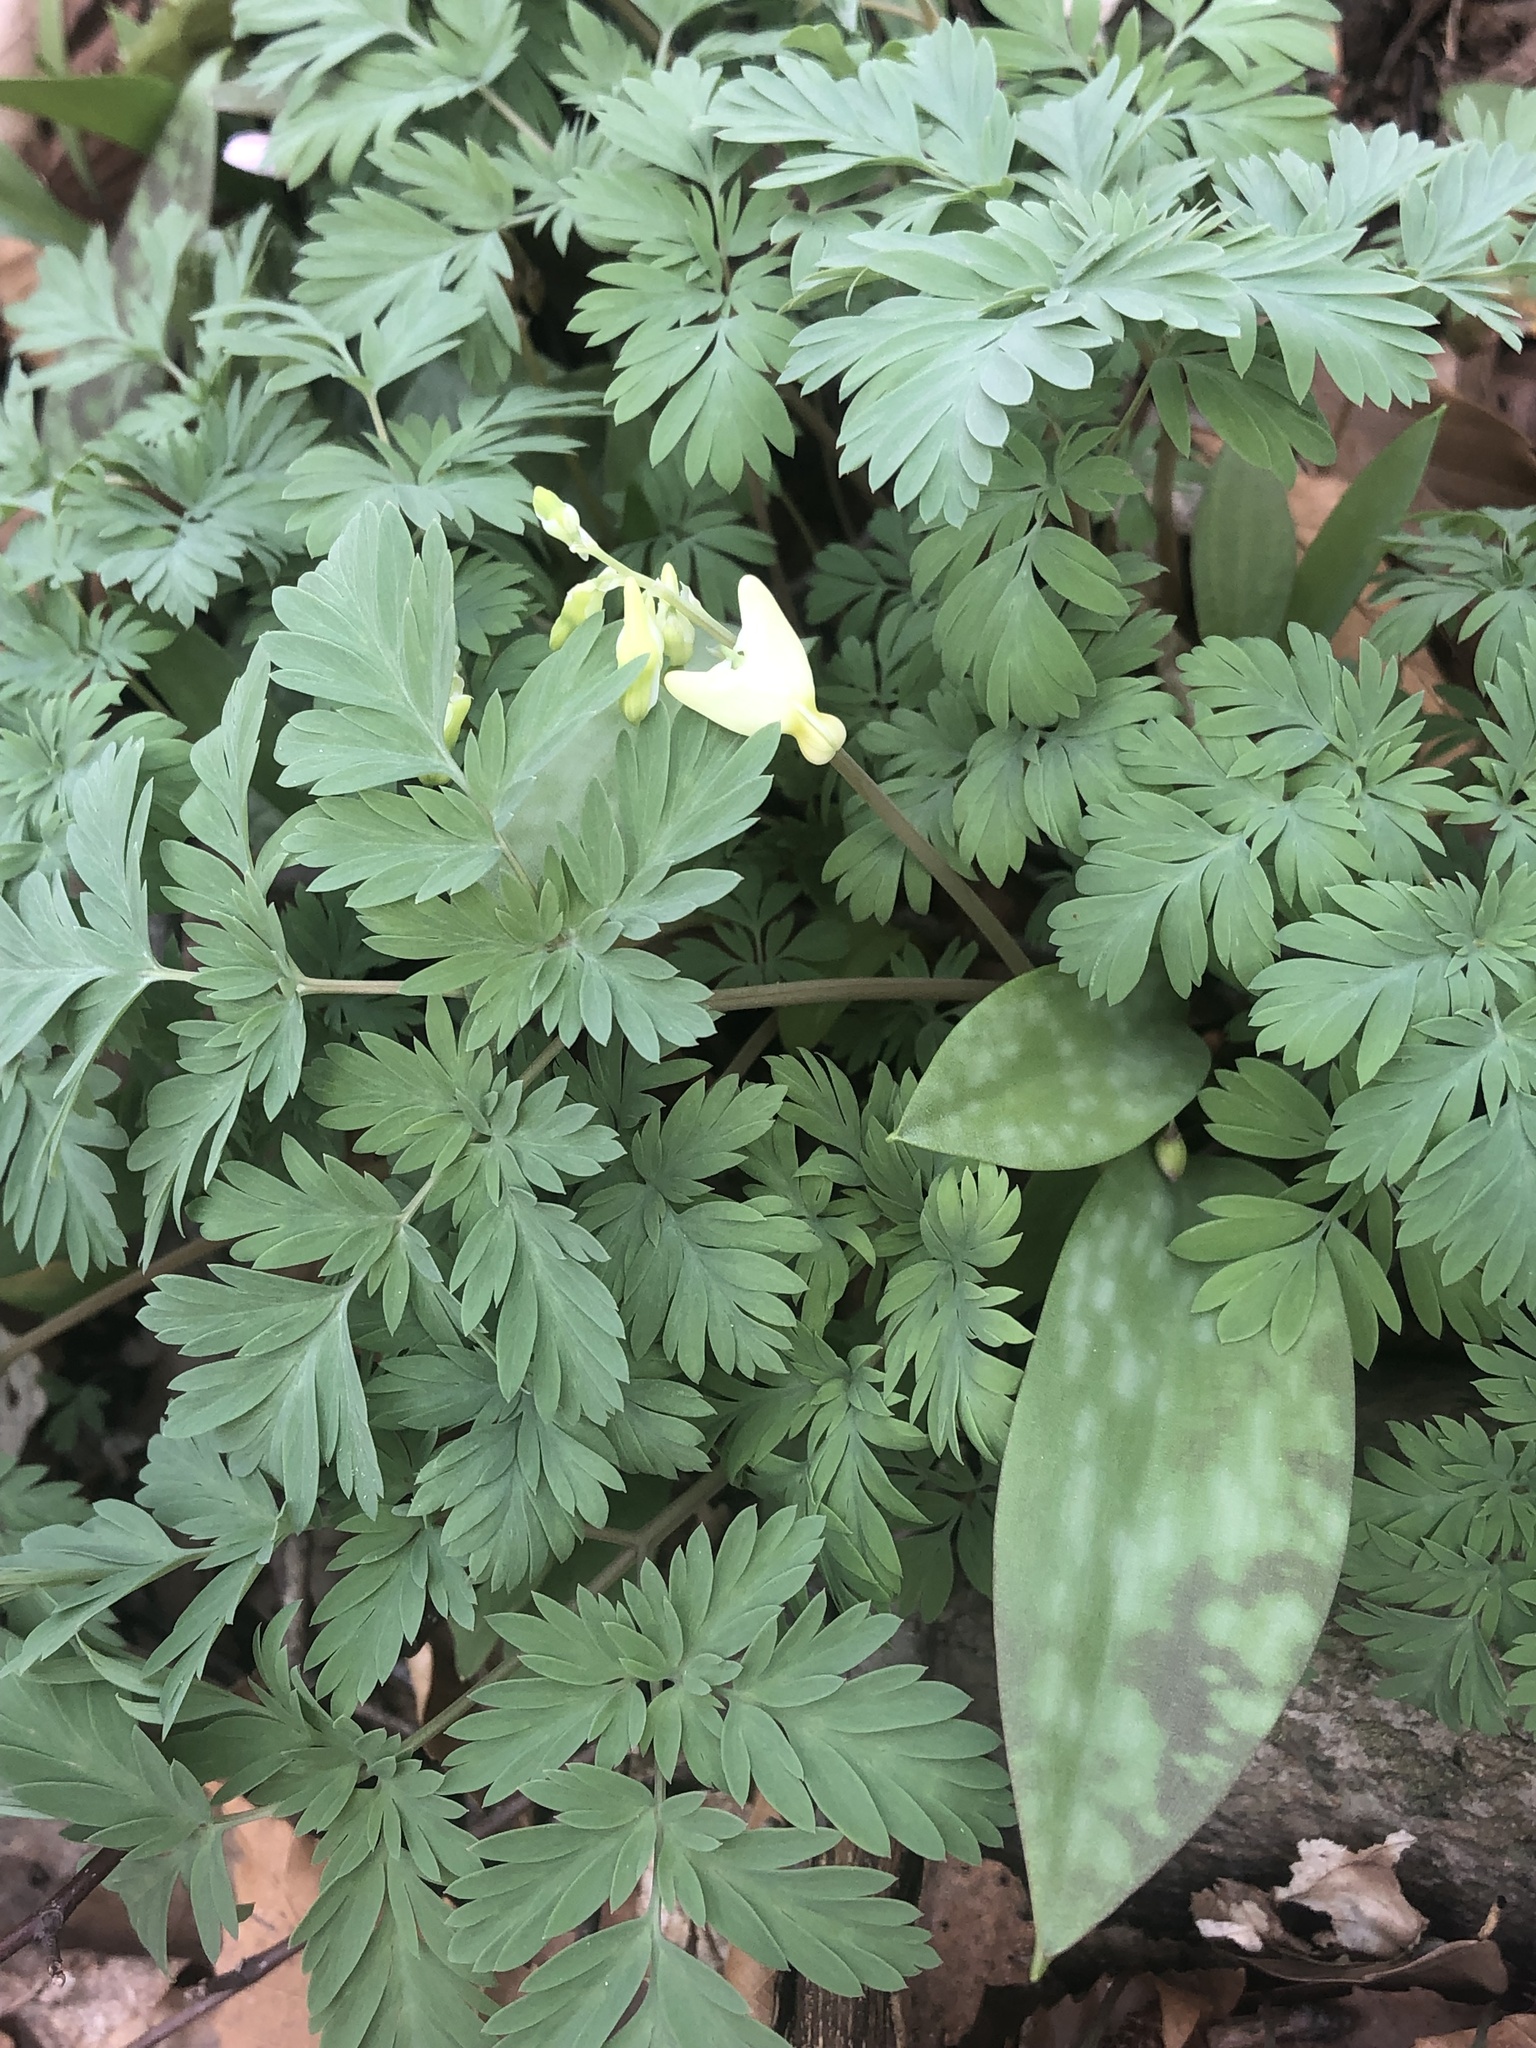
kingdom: Plantae
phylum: Tracheophyta
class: Magnoliopsida
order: Ranunculales
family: Papaveraceae
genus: Dicentra
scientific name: Dicentra cucullaria
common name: Dutchman's breeches
